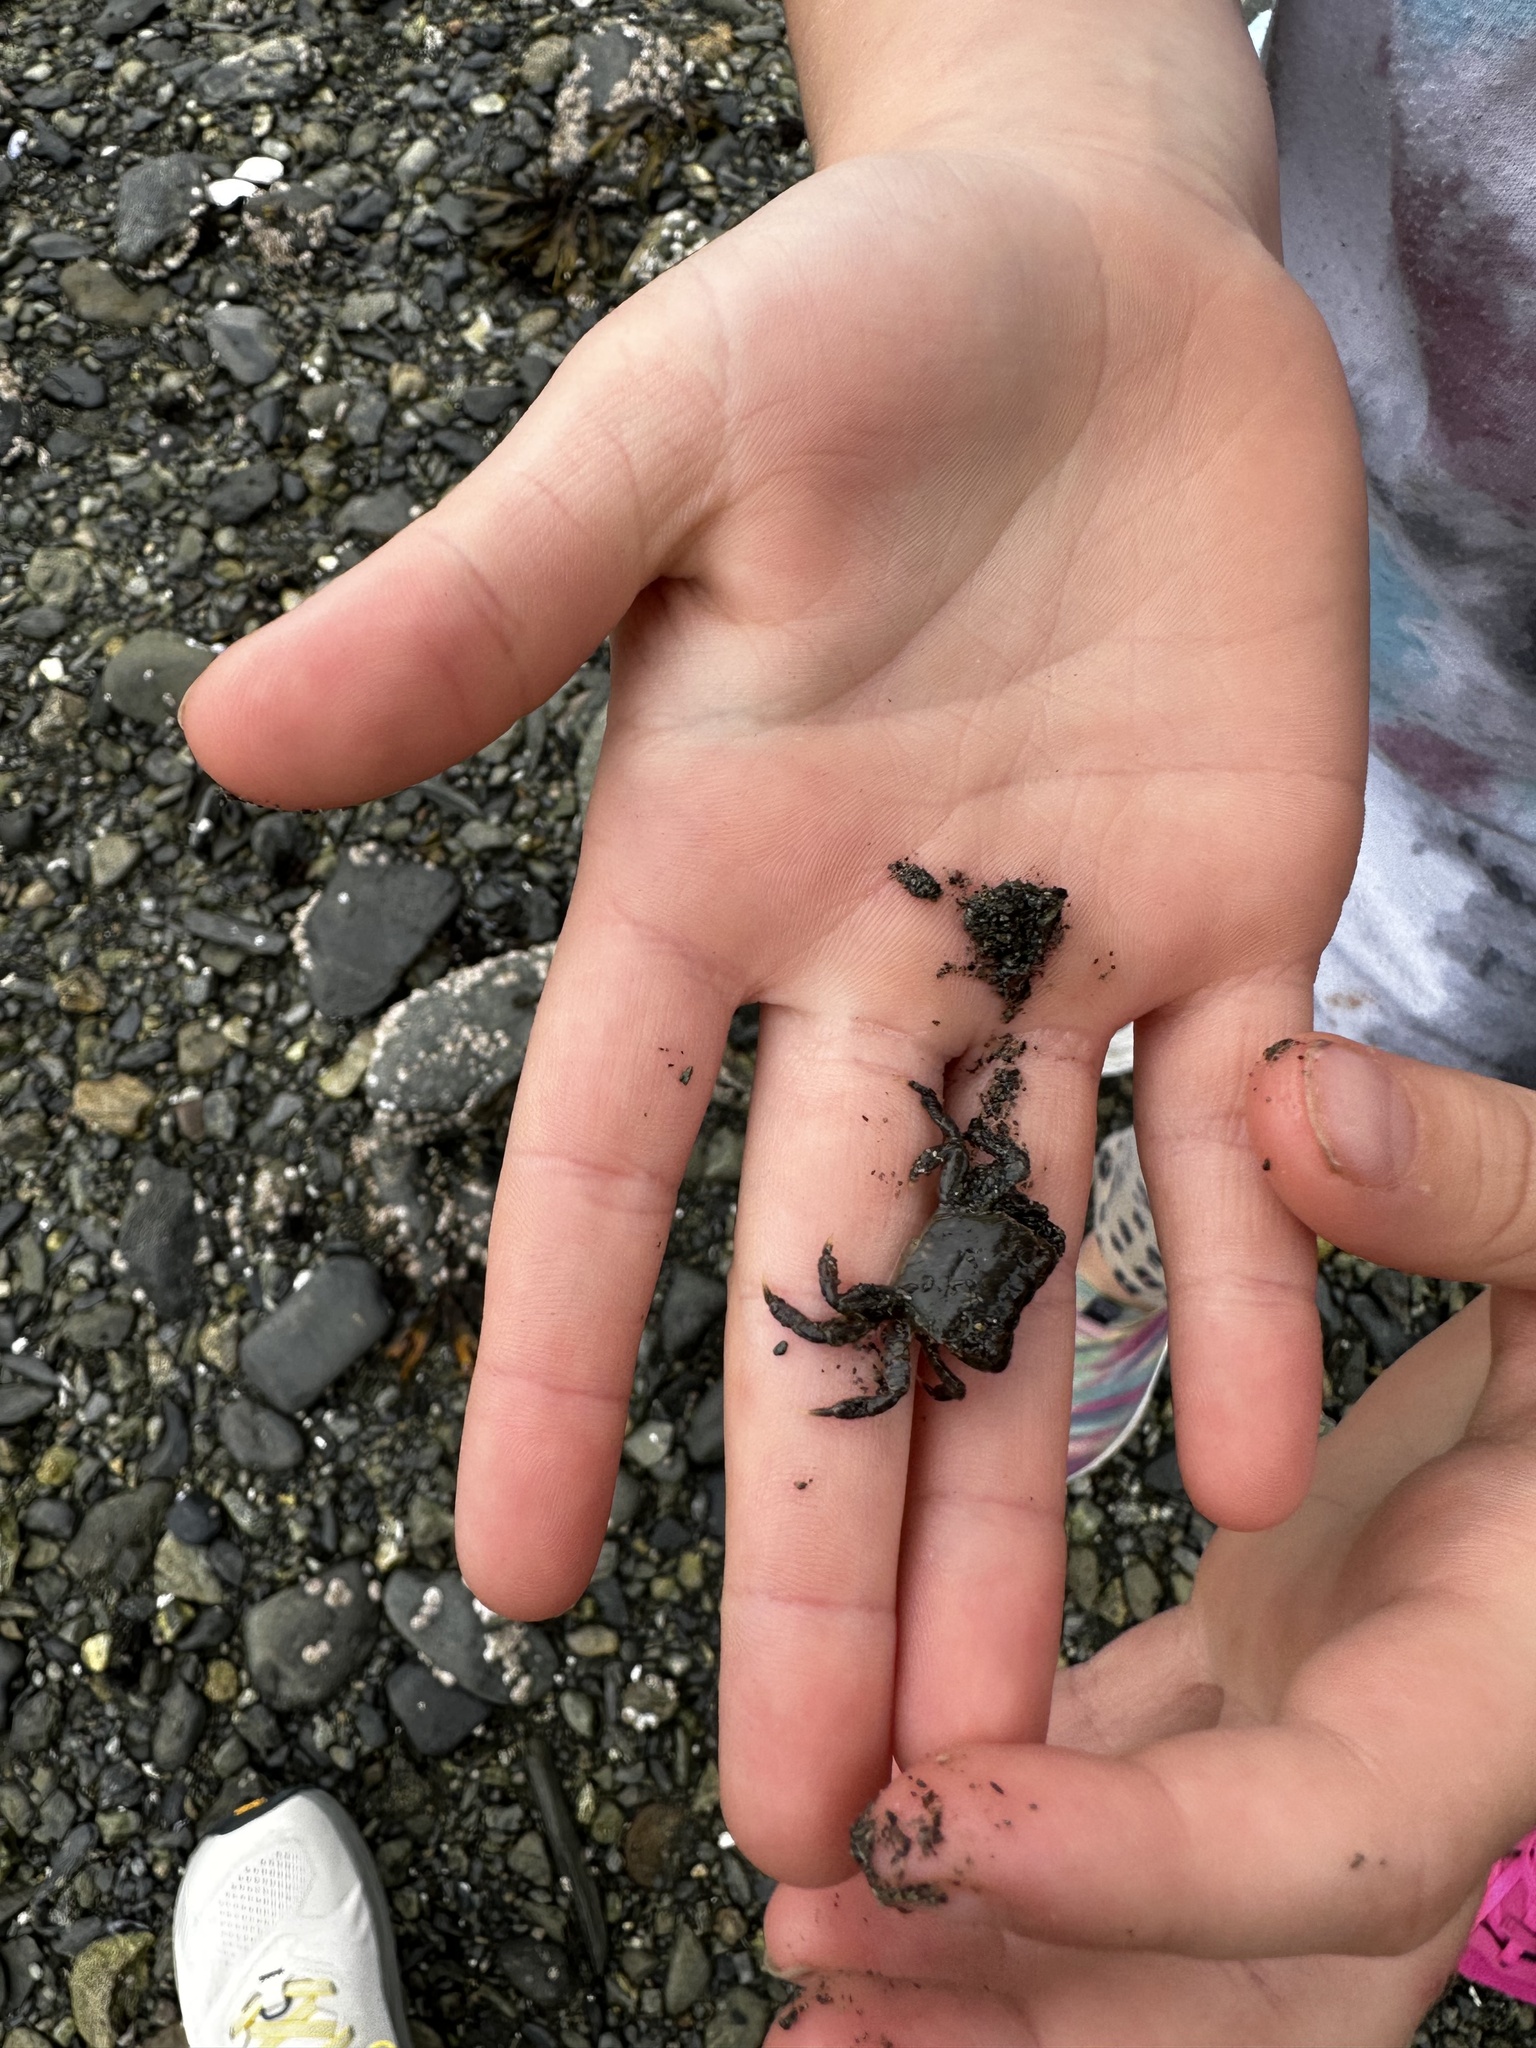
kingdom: Animalia
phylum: Arthropoda
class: Malacostraca
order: Decapoda
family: Varunidae
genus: Hemigrapsus
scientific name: Hemigrapsus oregonensis
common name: Yellow shore crab
